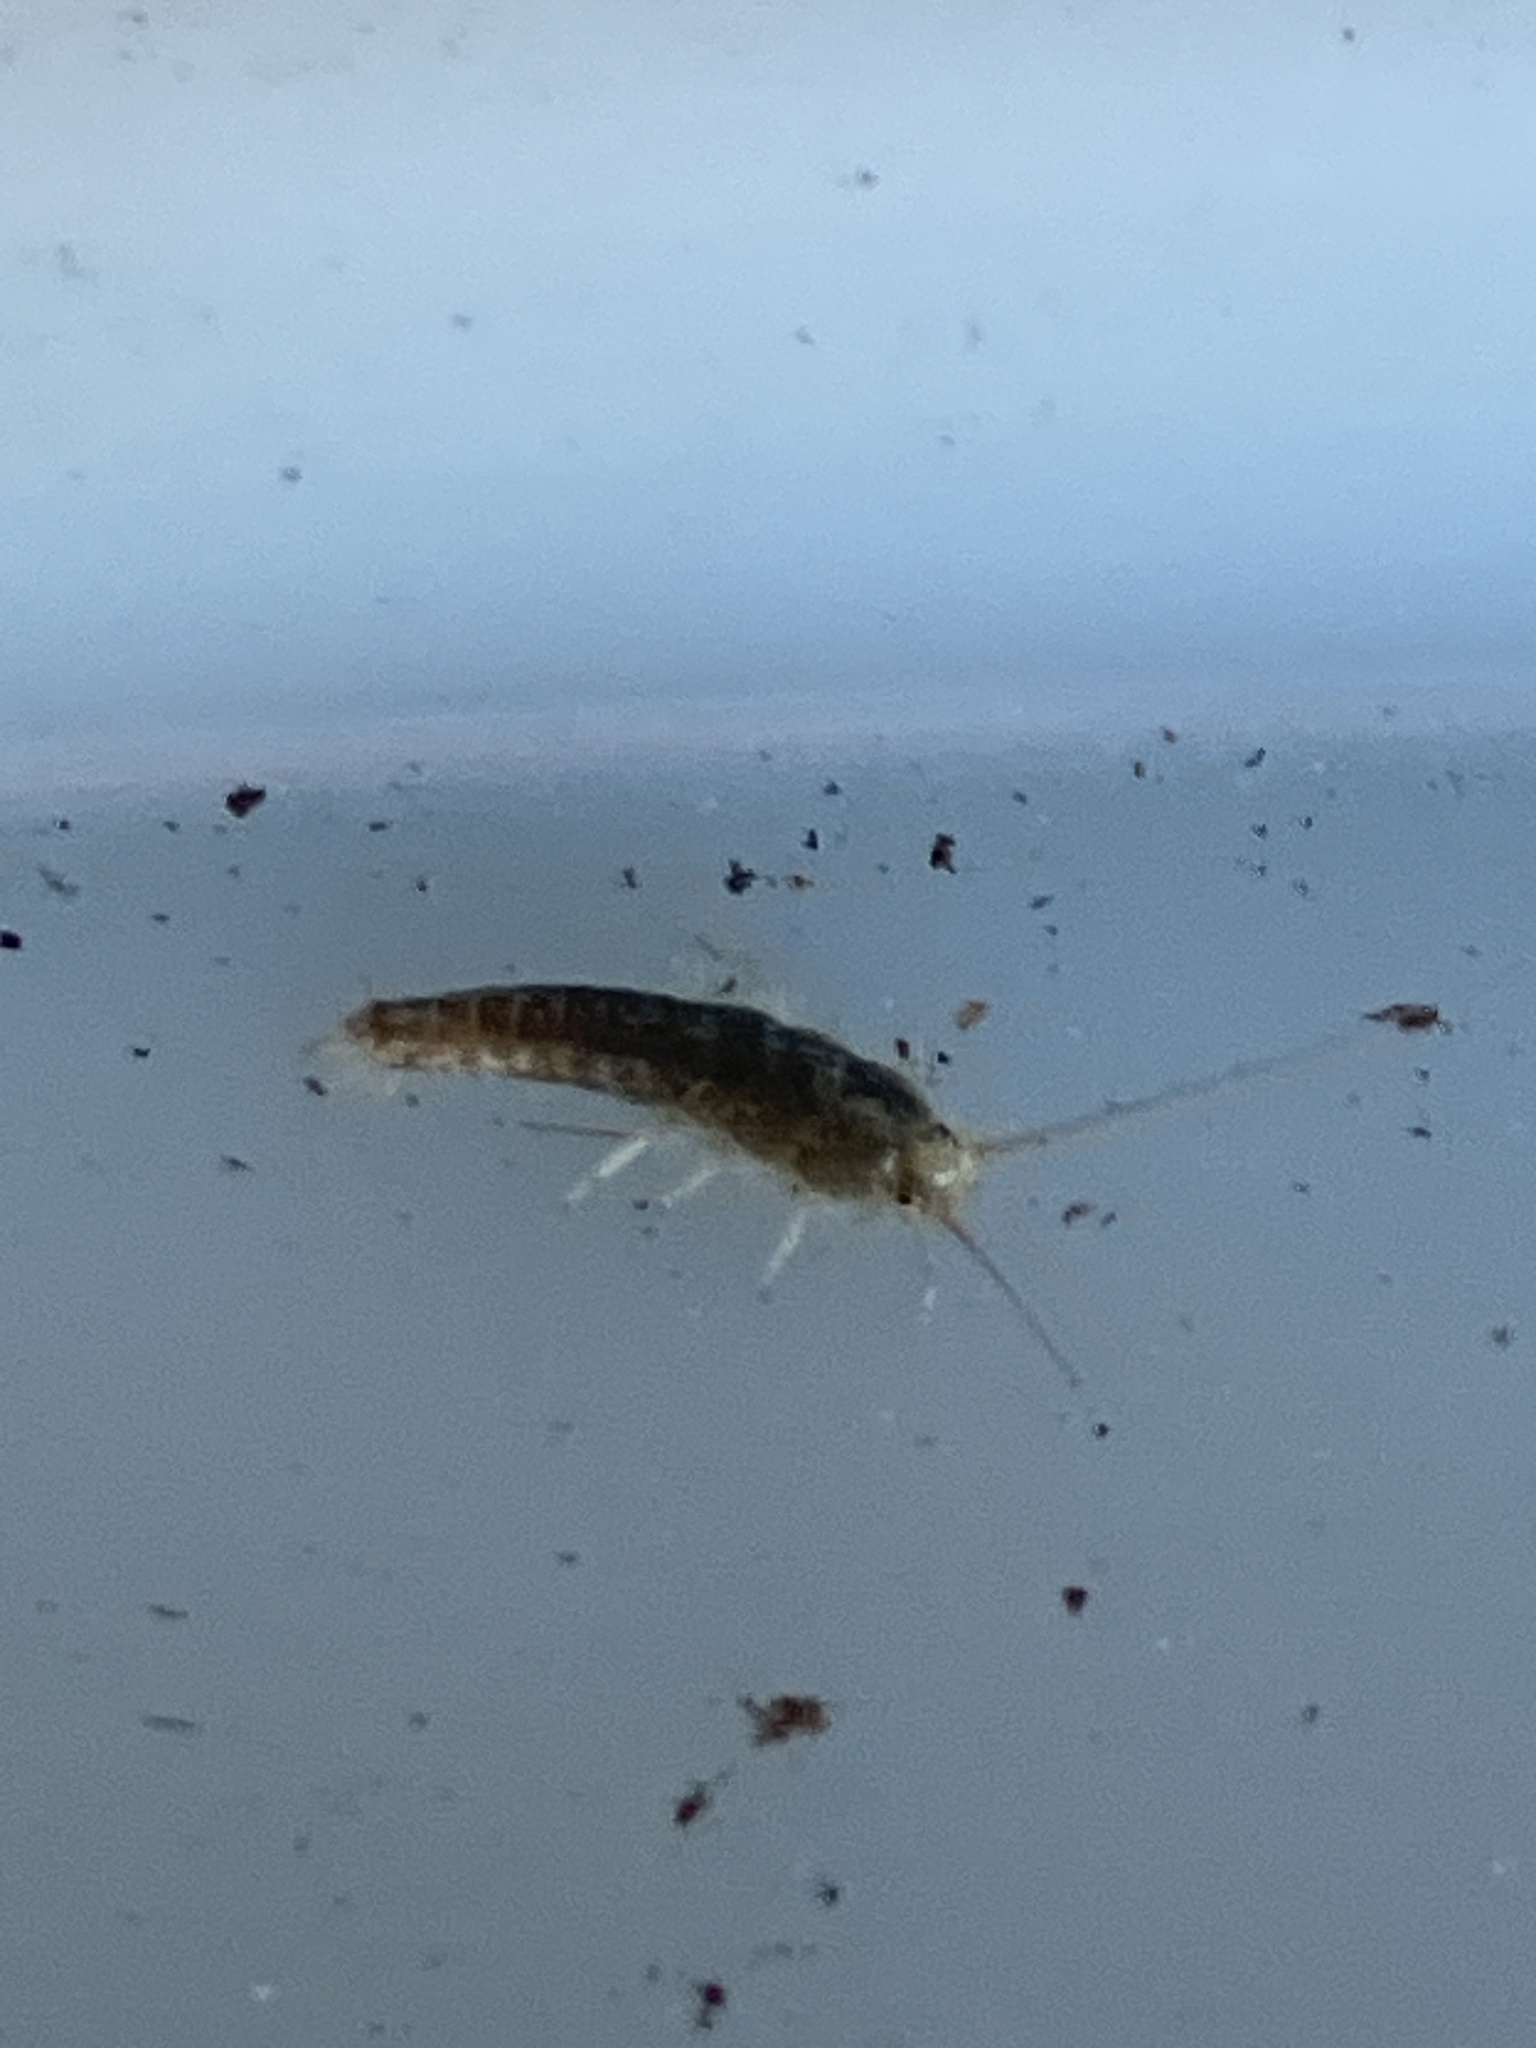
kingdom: Animalia
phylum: Arthropoda
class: Insecta
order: Zygentoma
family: Lepismatidae
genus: Ctenolepisma
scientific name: Ctenolepisma longicaudatum
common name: Silverfish
